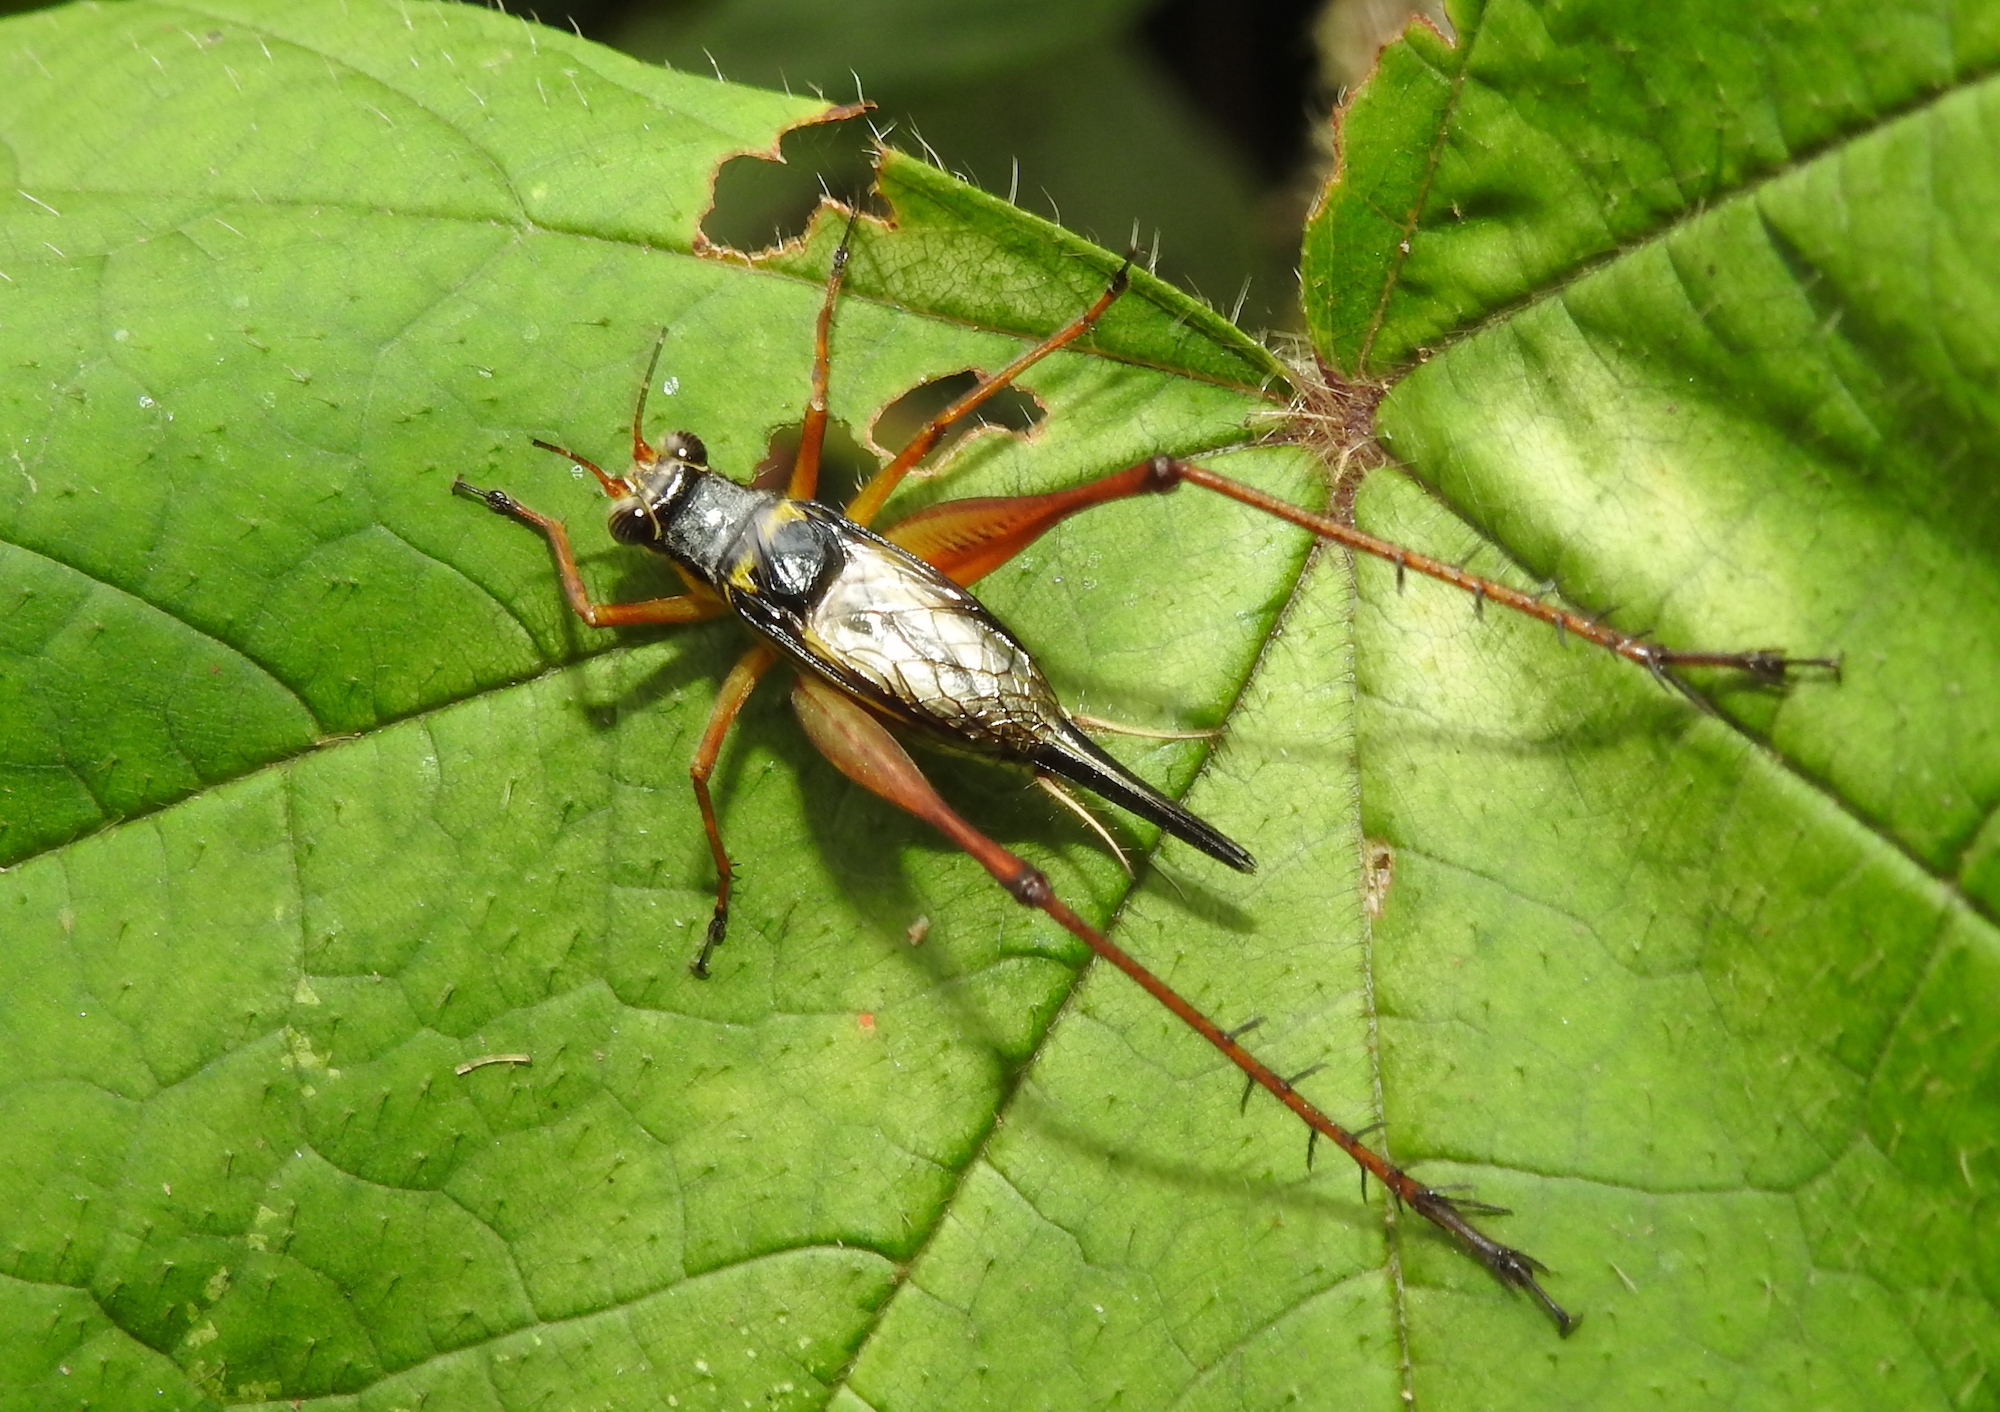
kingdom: Animalia
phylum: Arthropoda
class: Insecta
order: Orthoptera
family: Gryllidae
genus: Nisitrus
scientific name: Nisitrus malaya
